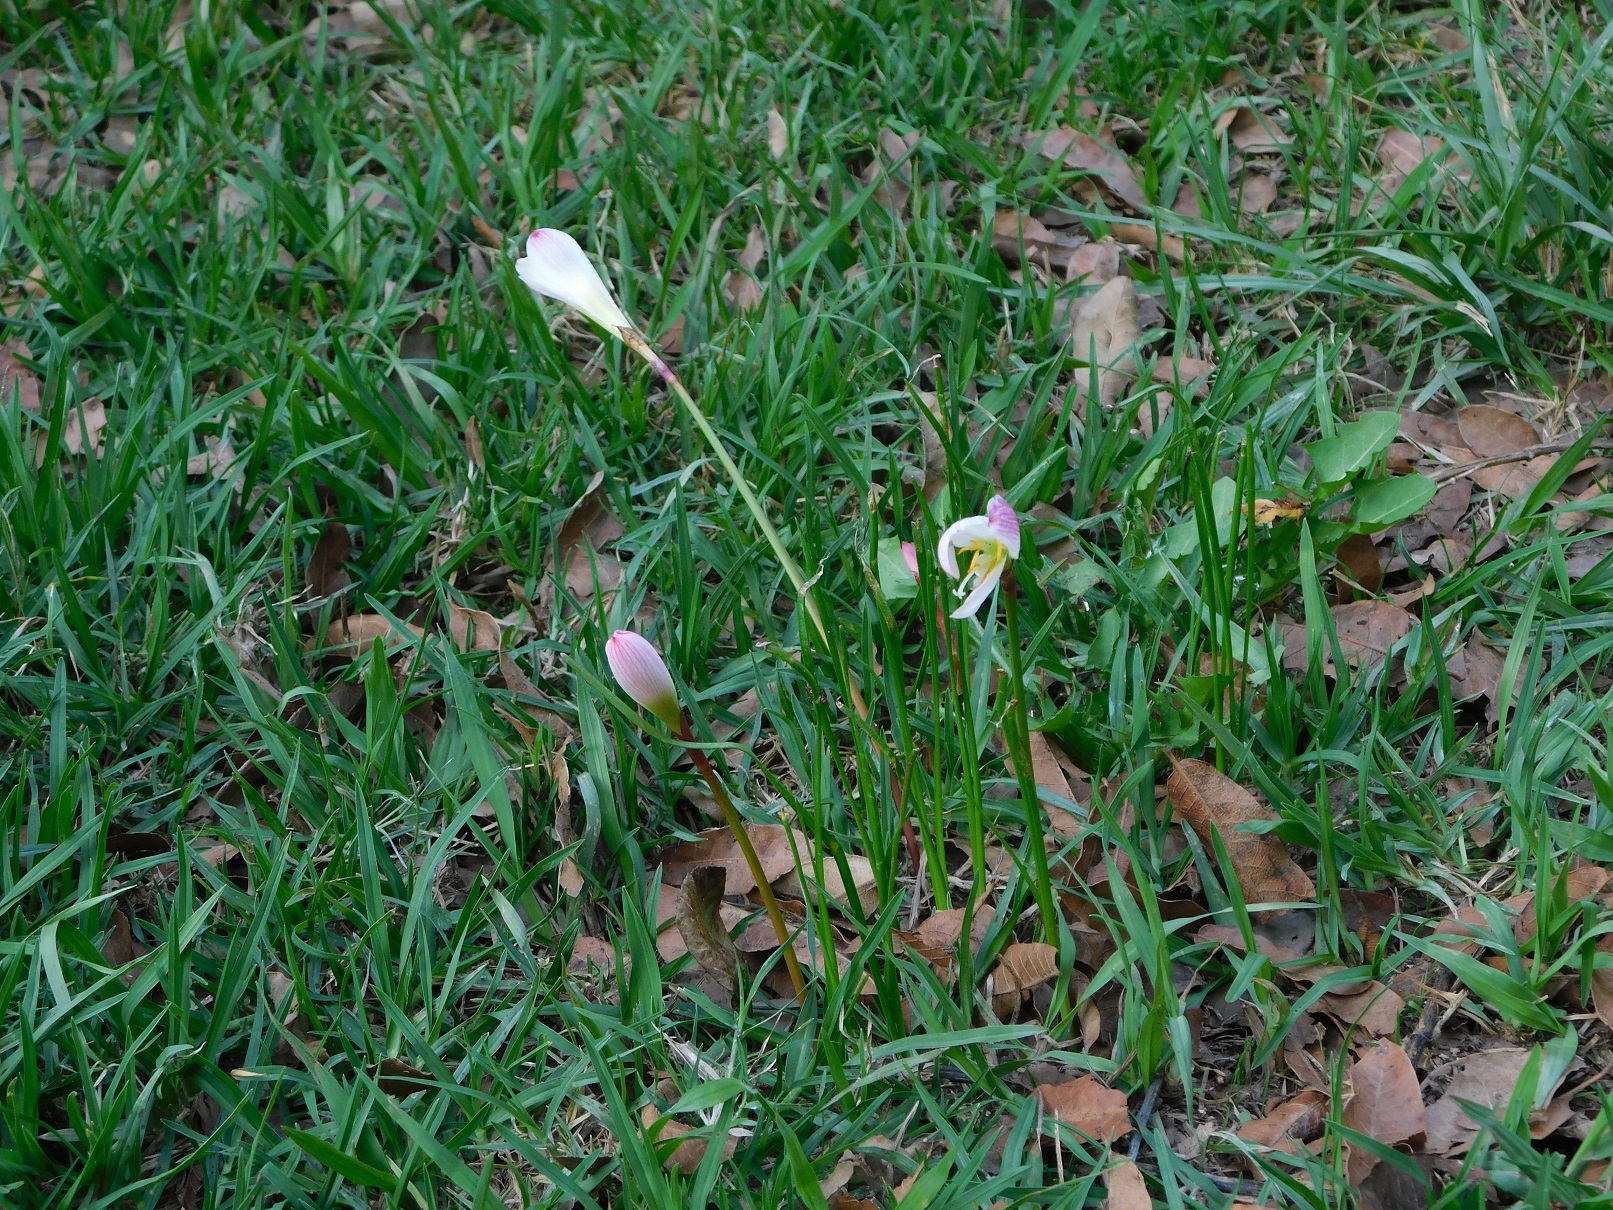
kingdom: Plantae
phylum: Tracheophyta
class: Liliopsida
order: Asparagales
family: Amaryllidaceae
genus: Zephyranthes
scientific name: Zephyranthes minuta
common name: Pink rain lily
